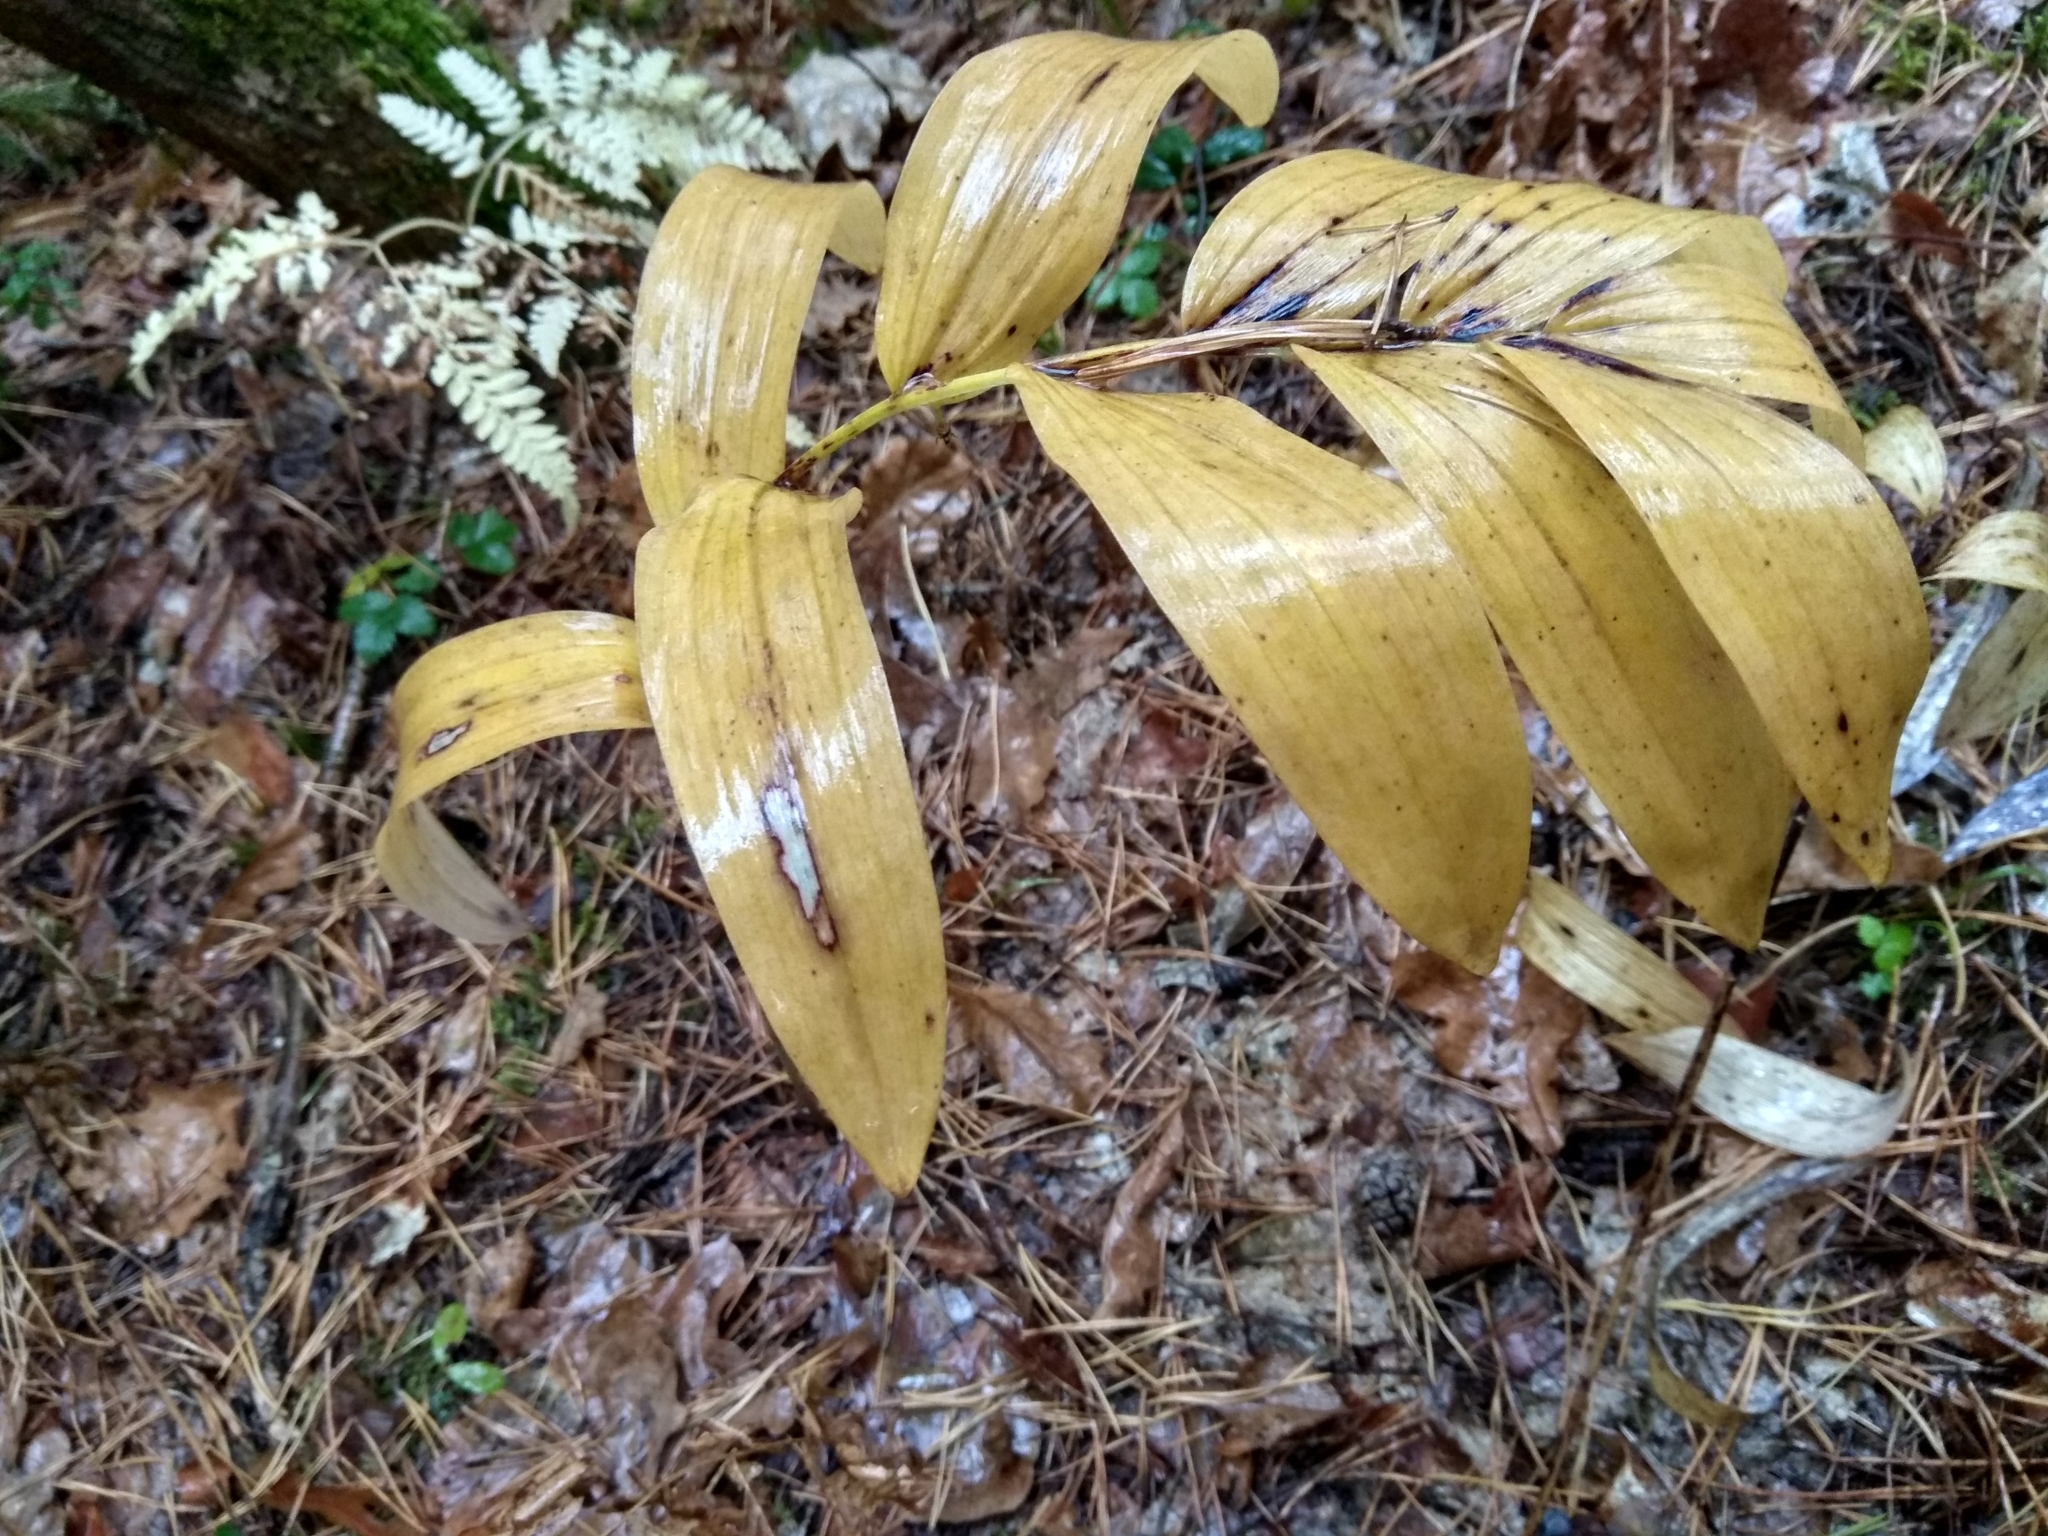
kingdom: Plantae
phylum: Tracheophyta
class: Liliopsida
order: Asparagales
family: Asparagaceae
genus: Polygonatum
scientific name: Polygonatum odoratum
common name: Angular solomon's-seal
